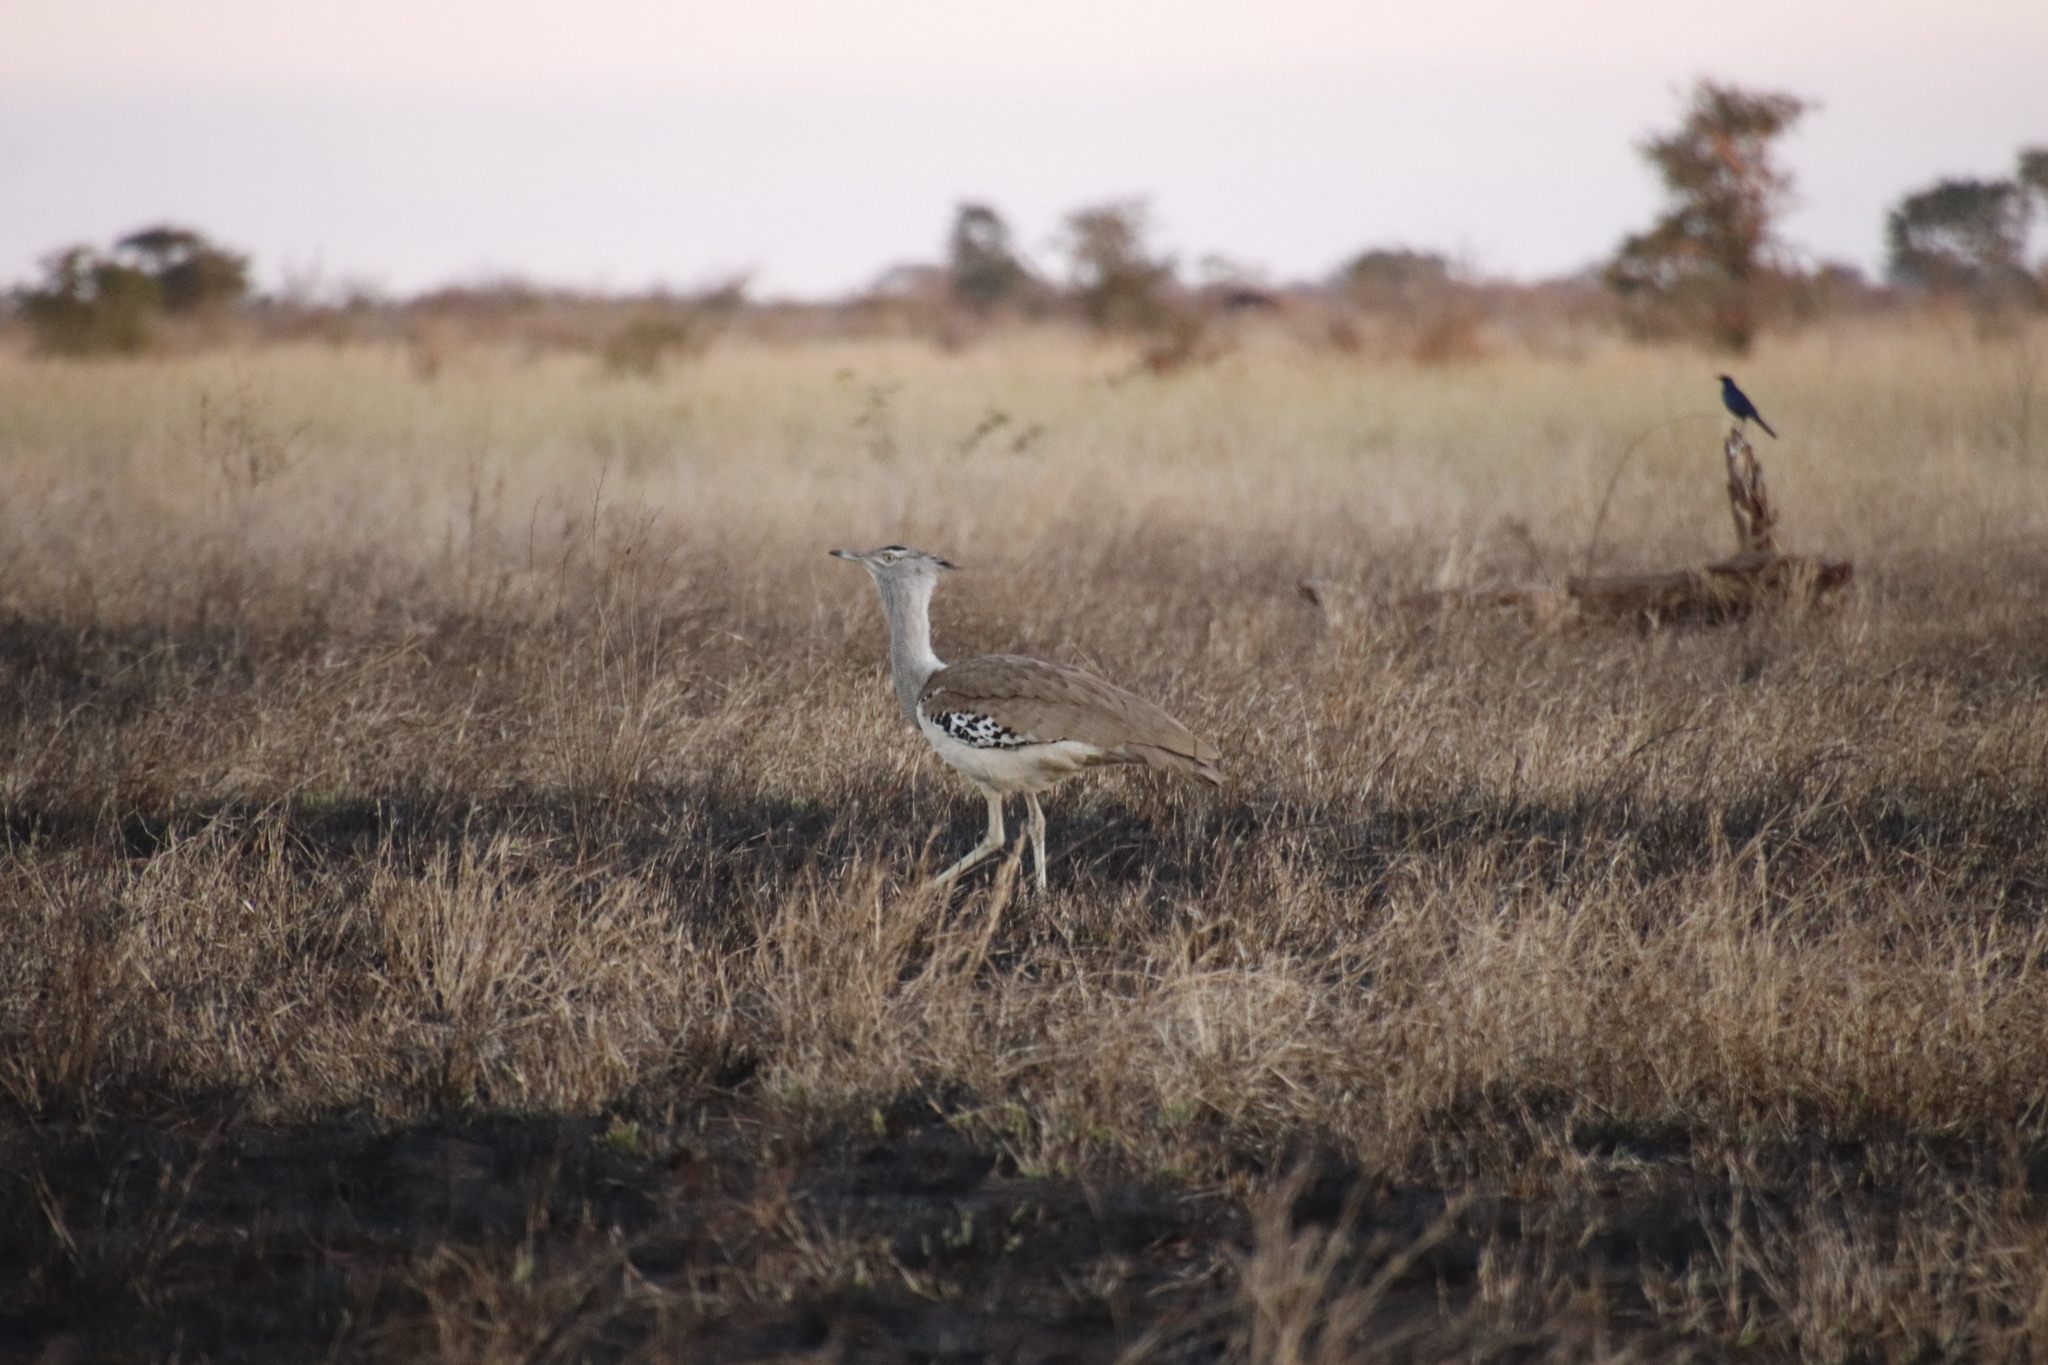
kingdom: Animalia
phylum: Chordata
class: Aves
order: Otidiformes
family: Otididae
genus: Ardeotis
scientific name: Ardeotis kori
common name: Kori bustard
